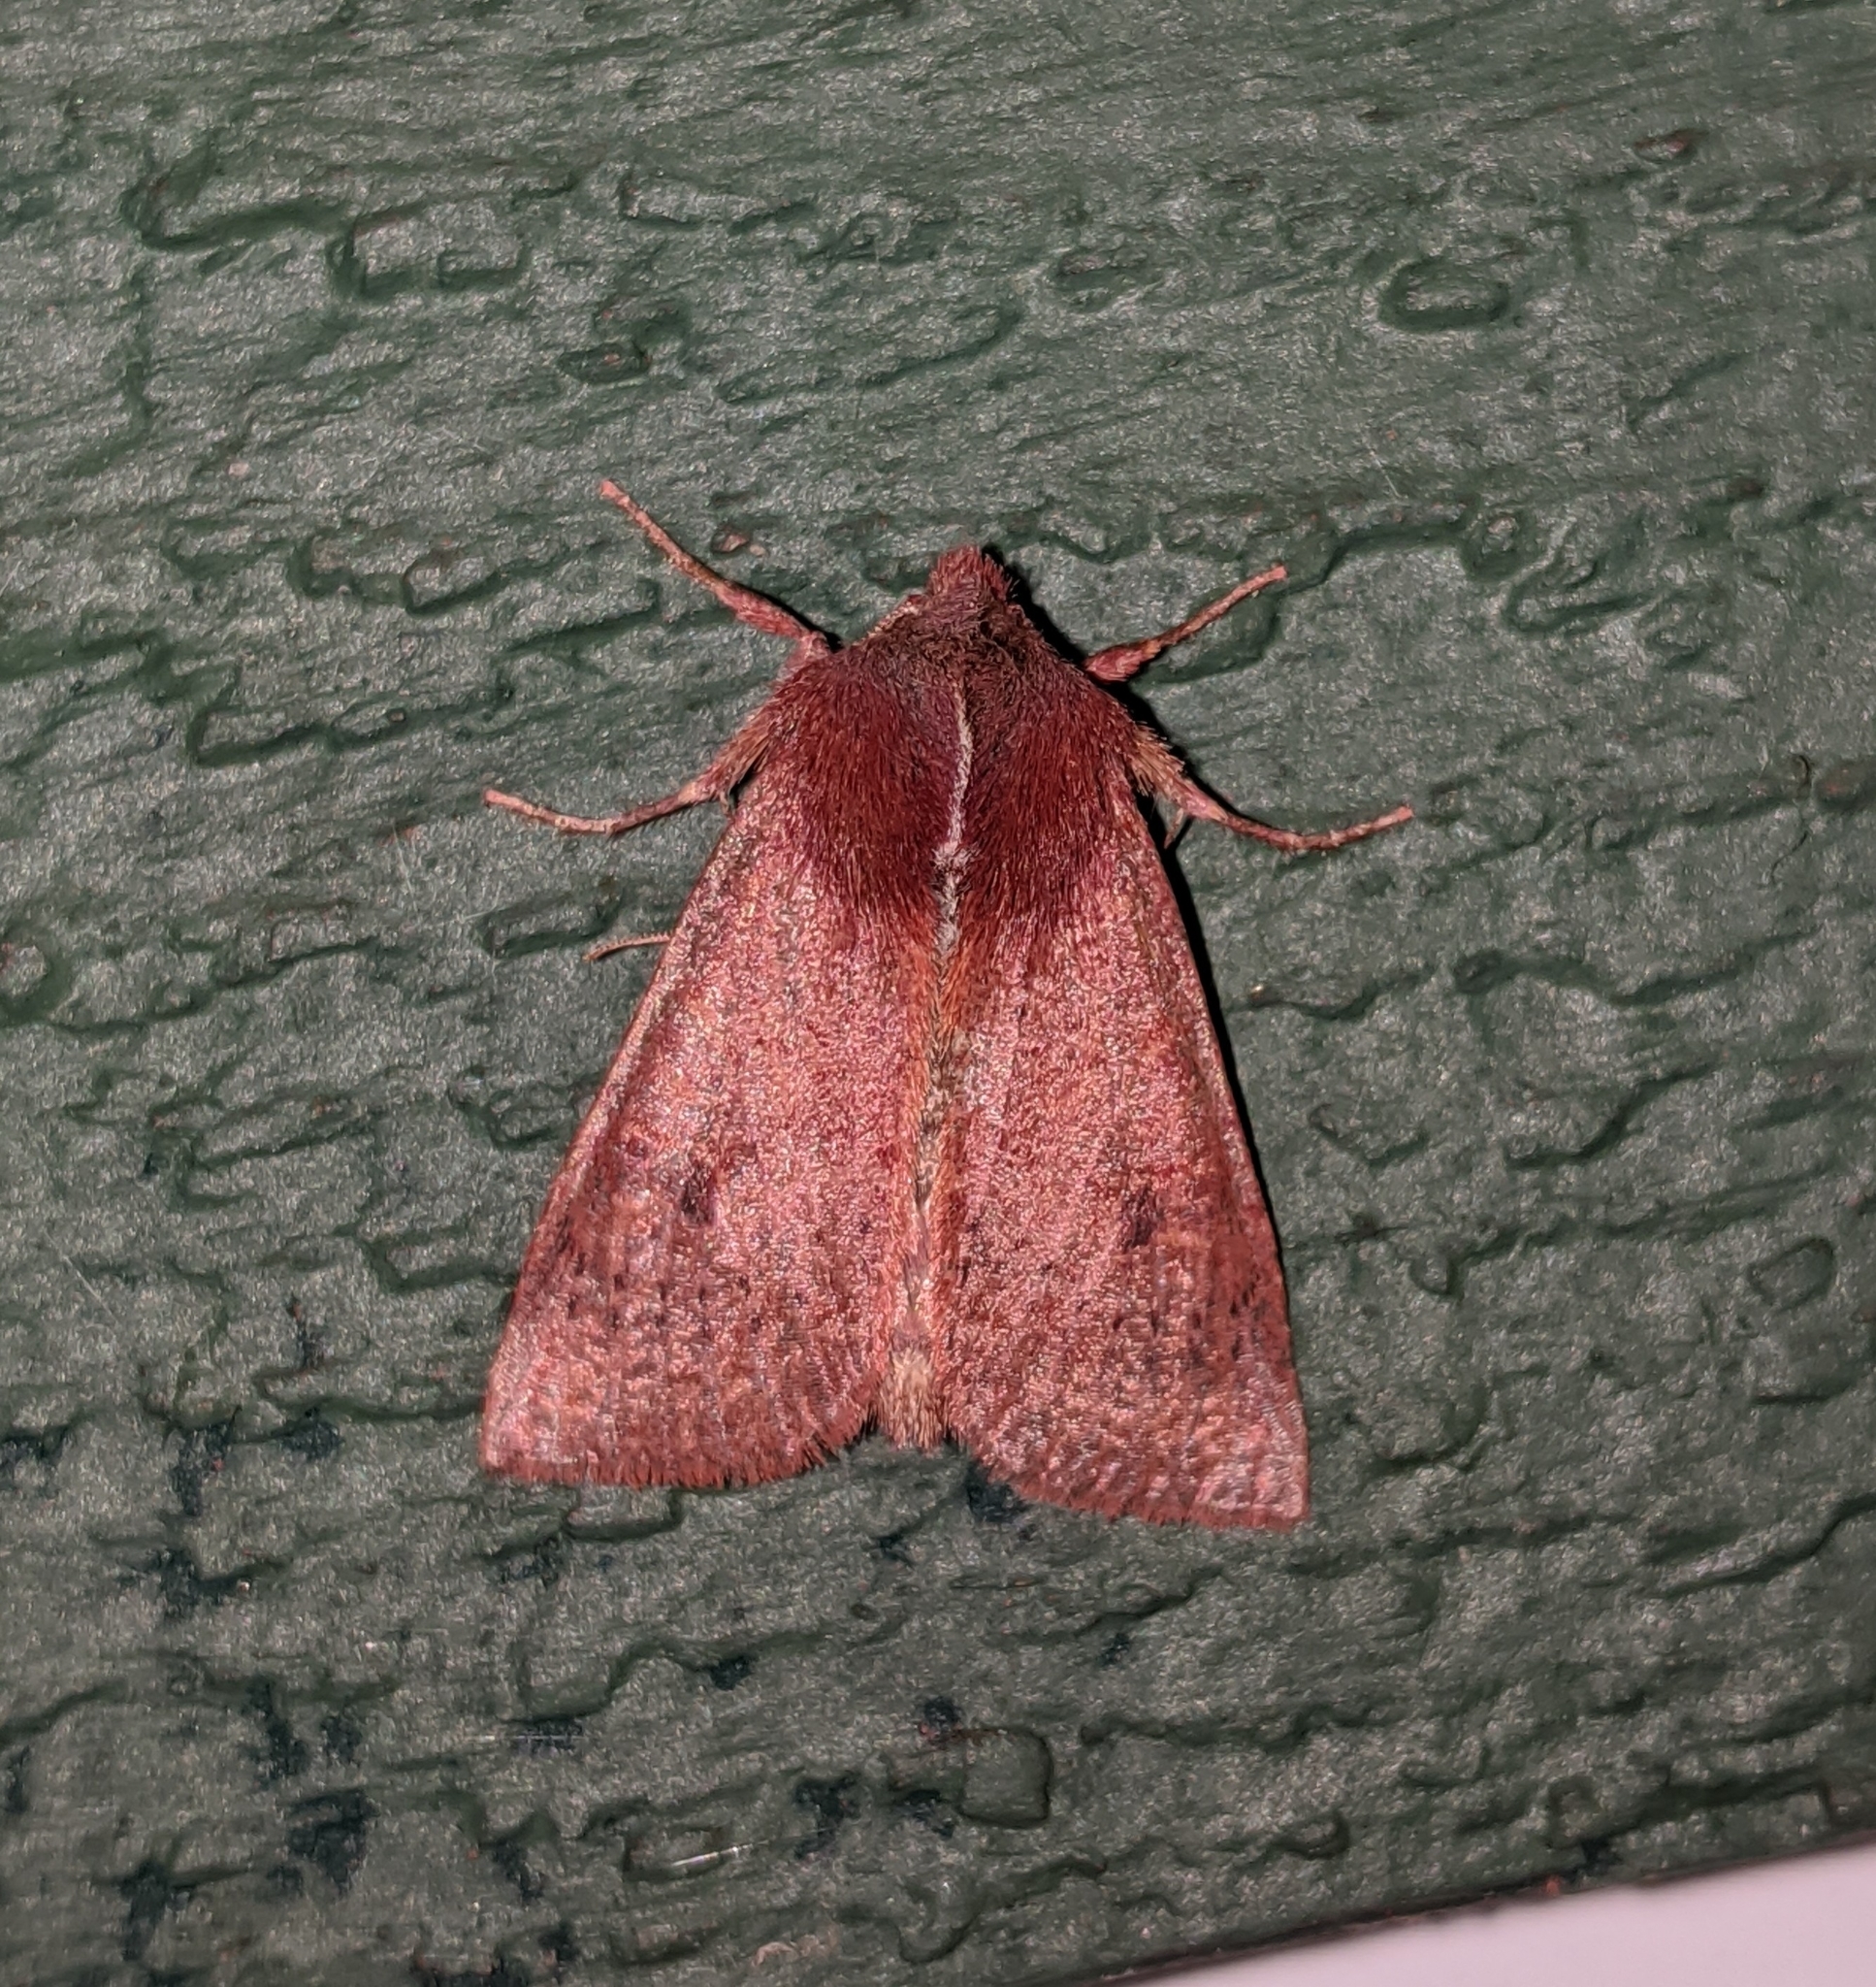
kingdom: Animalia
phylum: Arthropoda
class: Insecta
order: Lepidoptera
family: Noctuidae
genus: Orthosia
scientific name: Orthosia transparens
